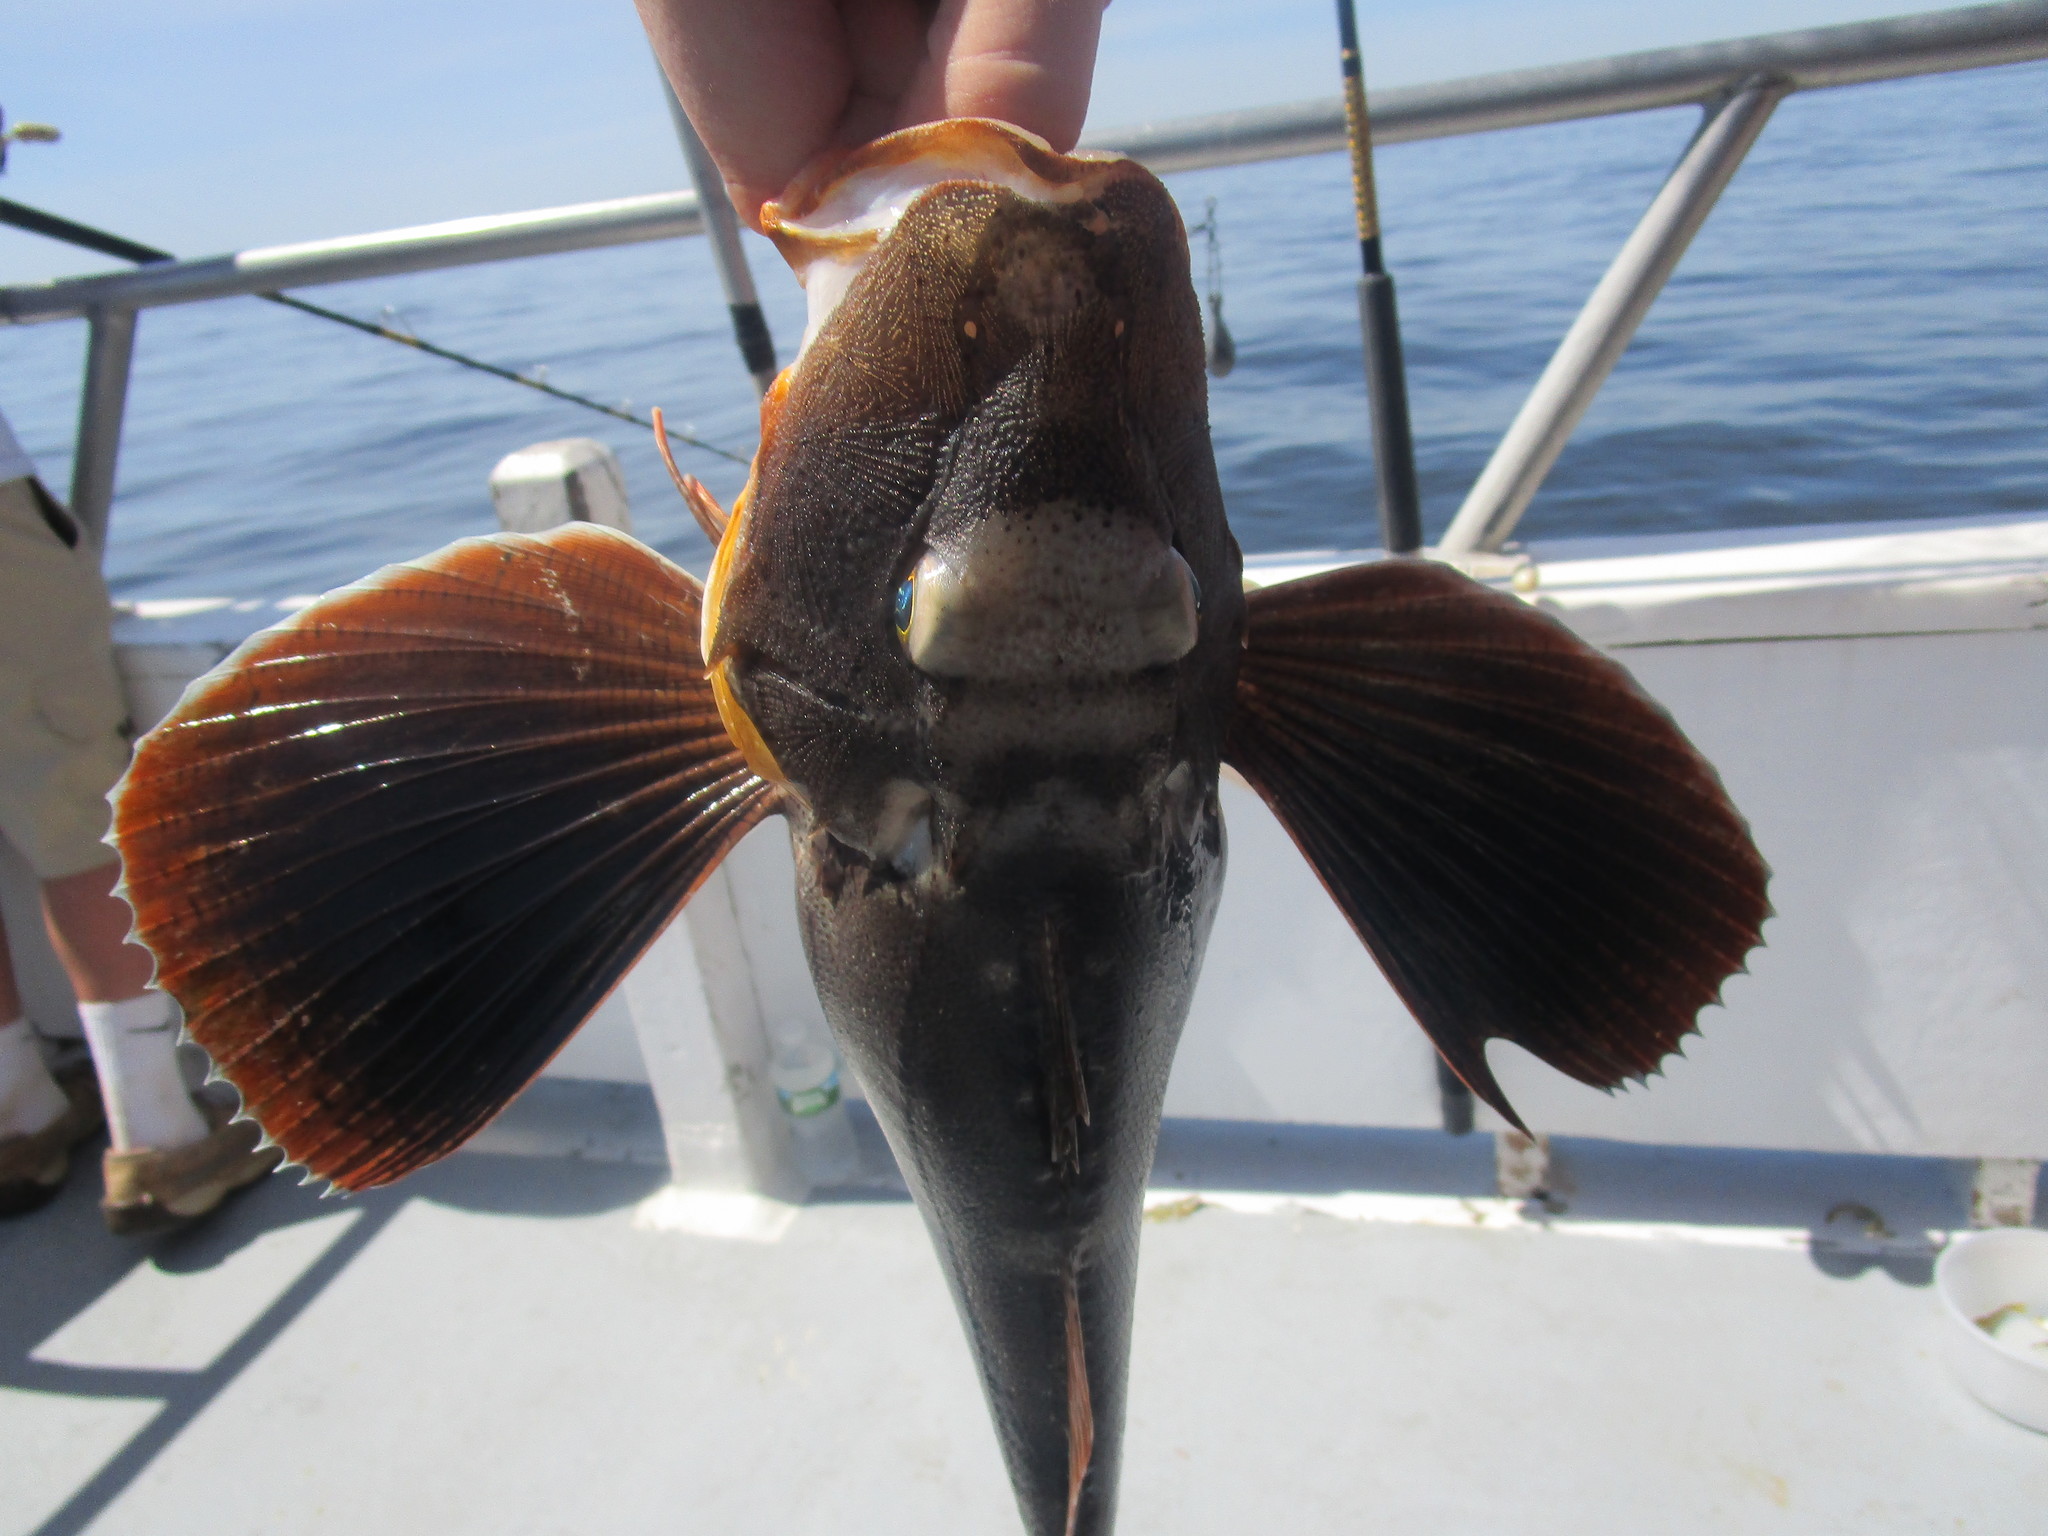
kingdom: Animalia
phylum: Chordata
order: Scorpaeniformes
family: Triglidae
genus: Prionotus
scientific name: Prionotus evolans
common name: Striped searobin
